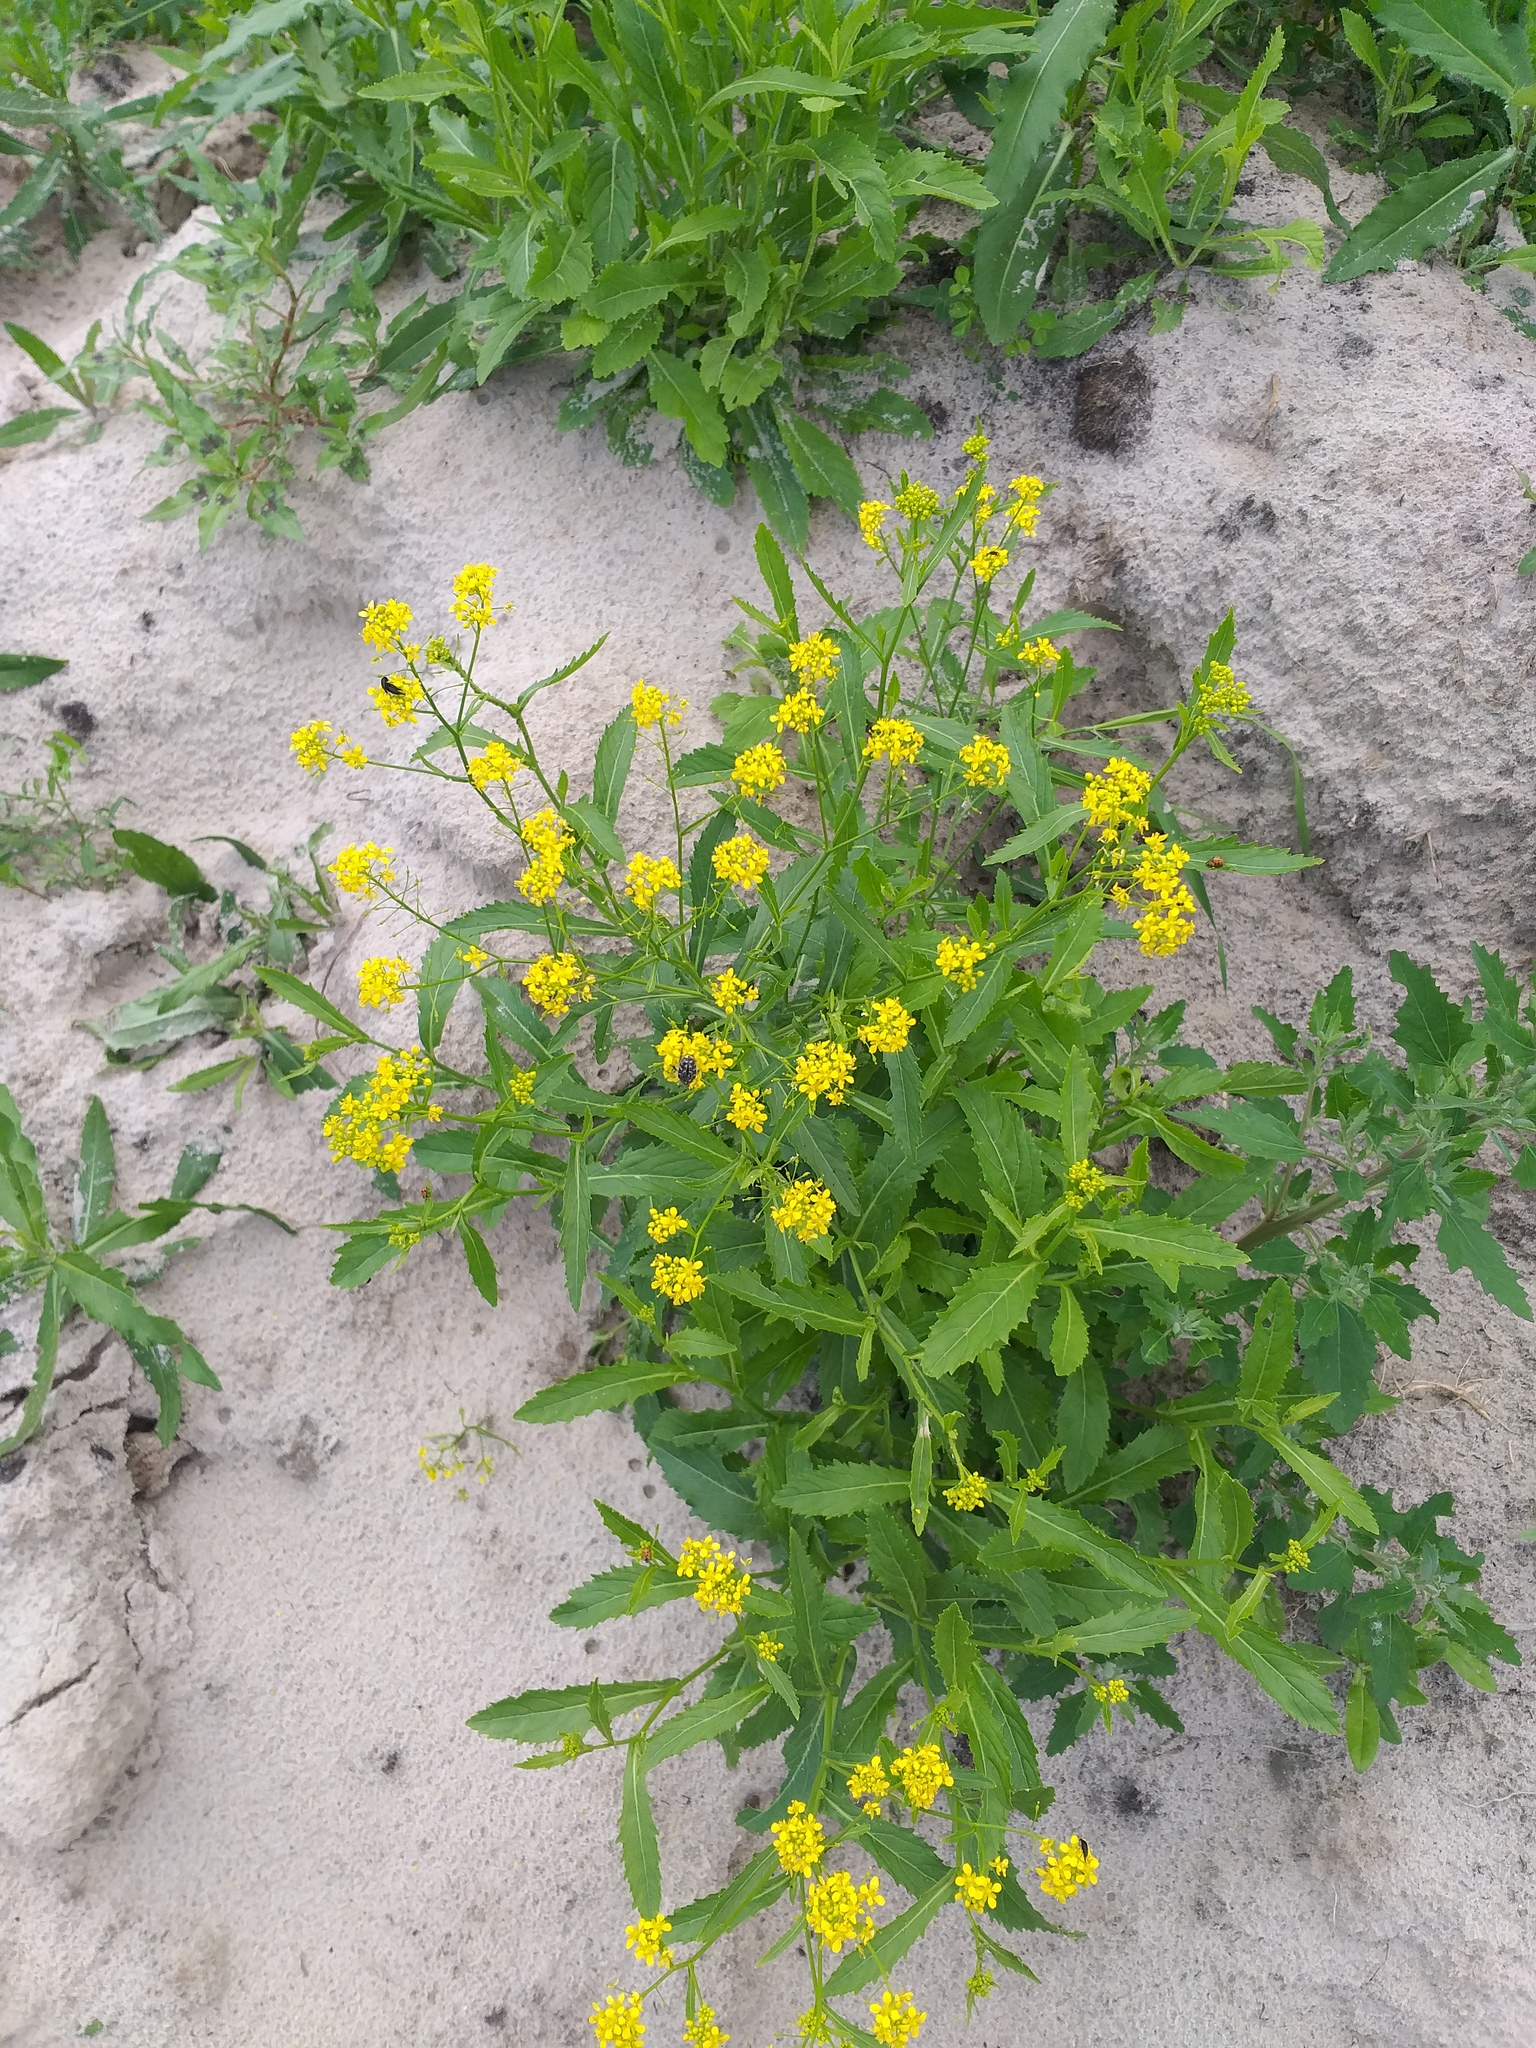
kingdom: Plantae
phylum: Tracheophyta
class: Magnoliopsida
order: Brassicales
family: Brassicaceae
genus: Rorippa
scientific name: Rorippa austriaca
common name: Austrian yellow-cress
